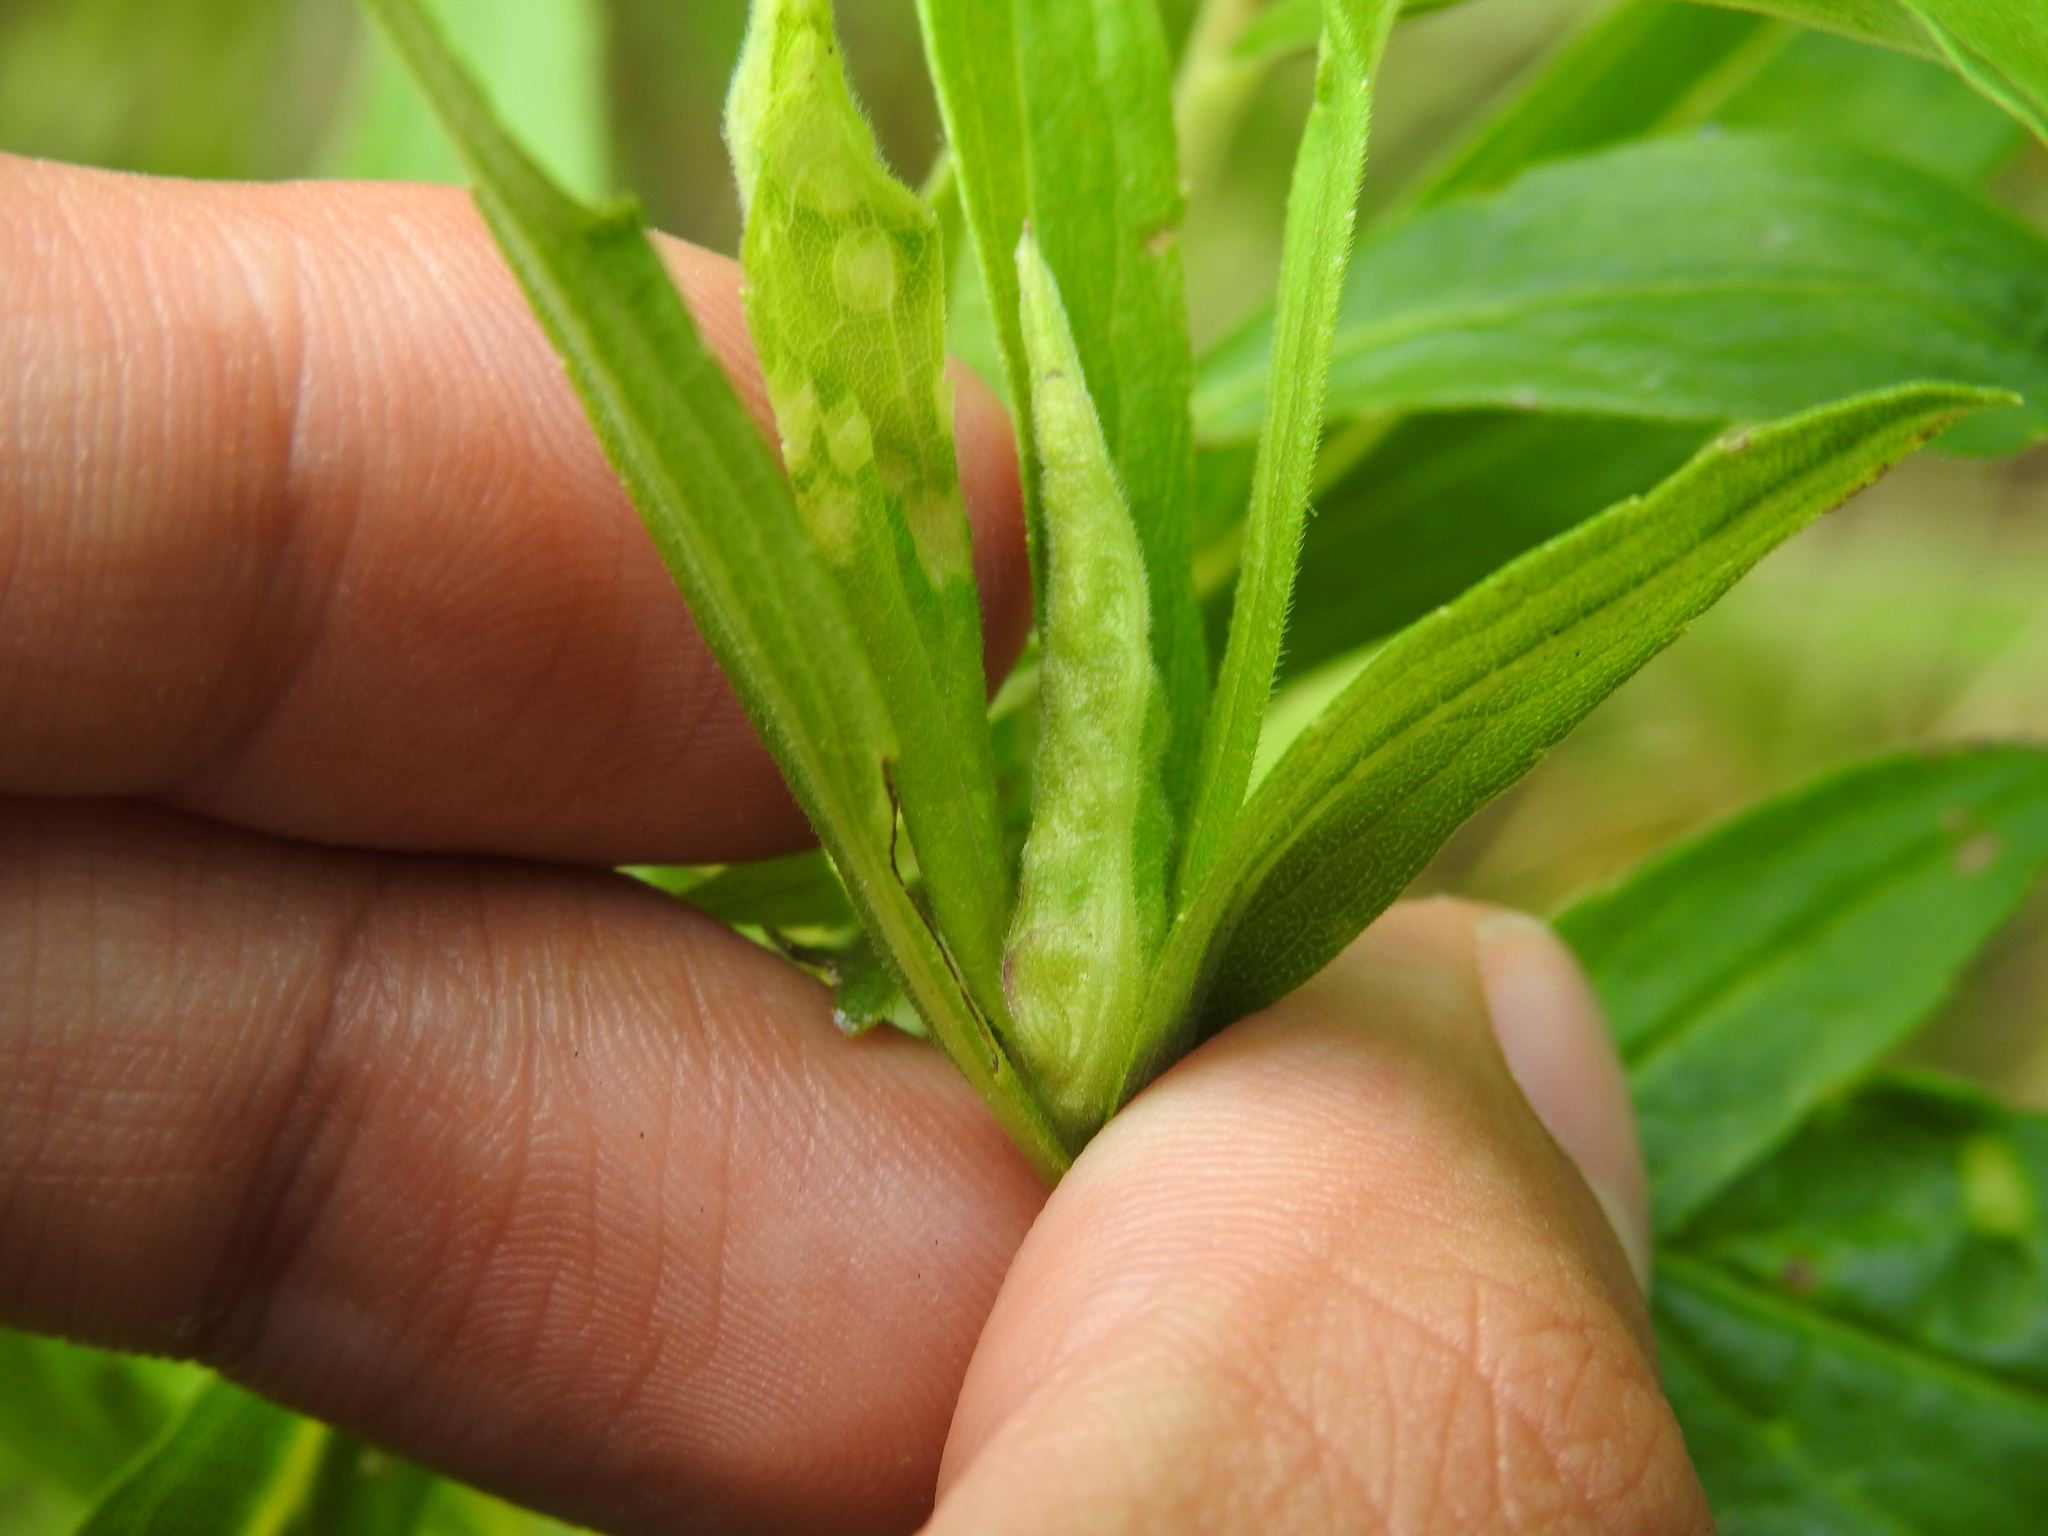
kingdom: Animalia
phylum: Arthropoda
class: Insecta
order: Diptera
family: Cecidomyiidae
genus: Dasineura
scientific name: Dasineura folliculi
